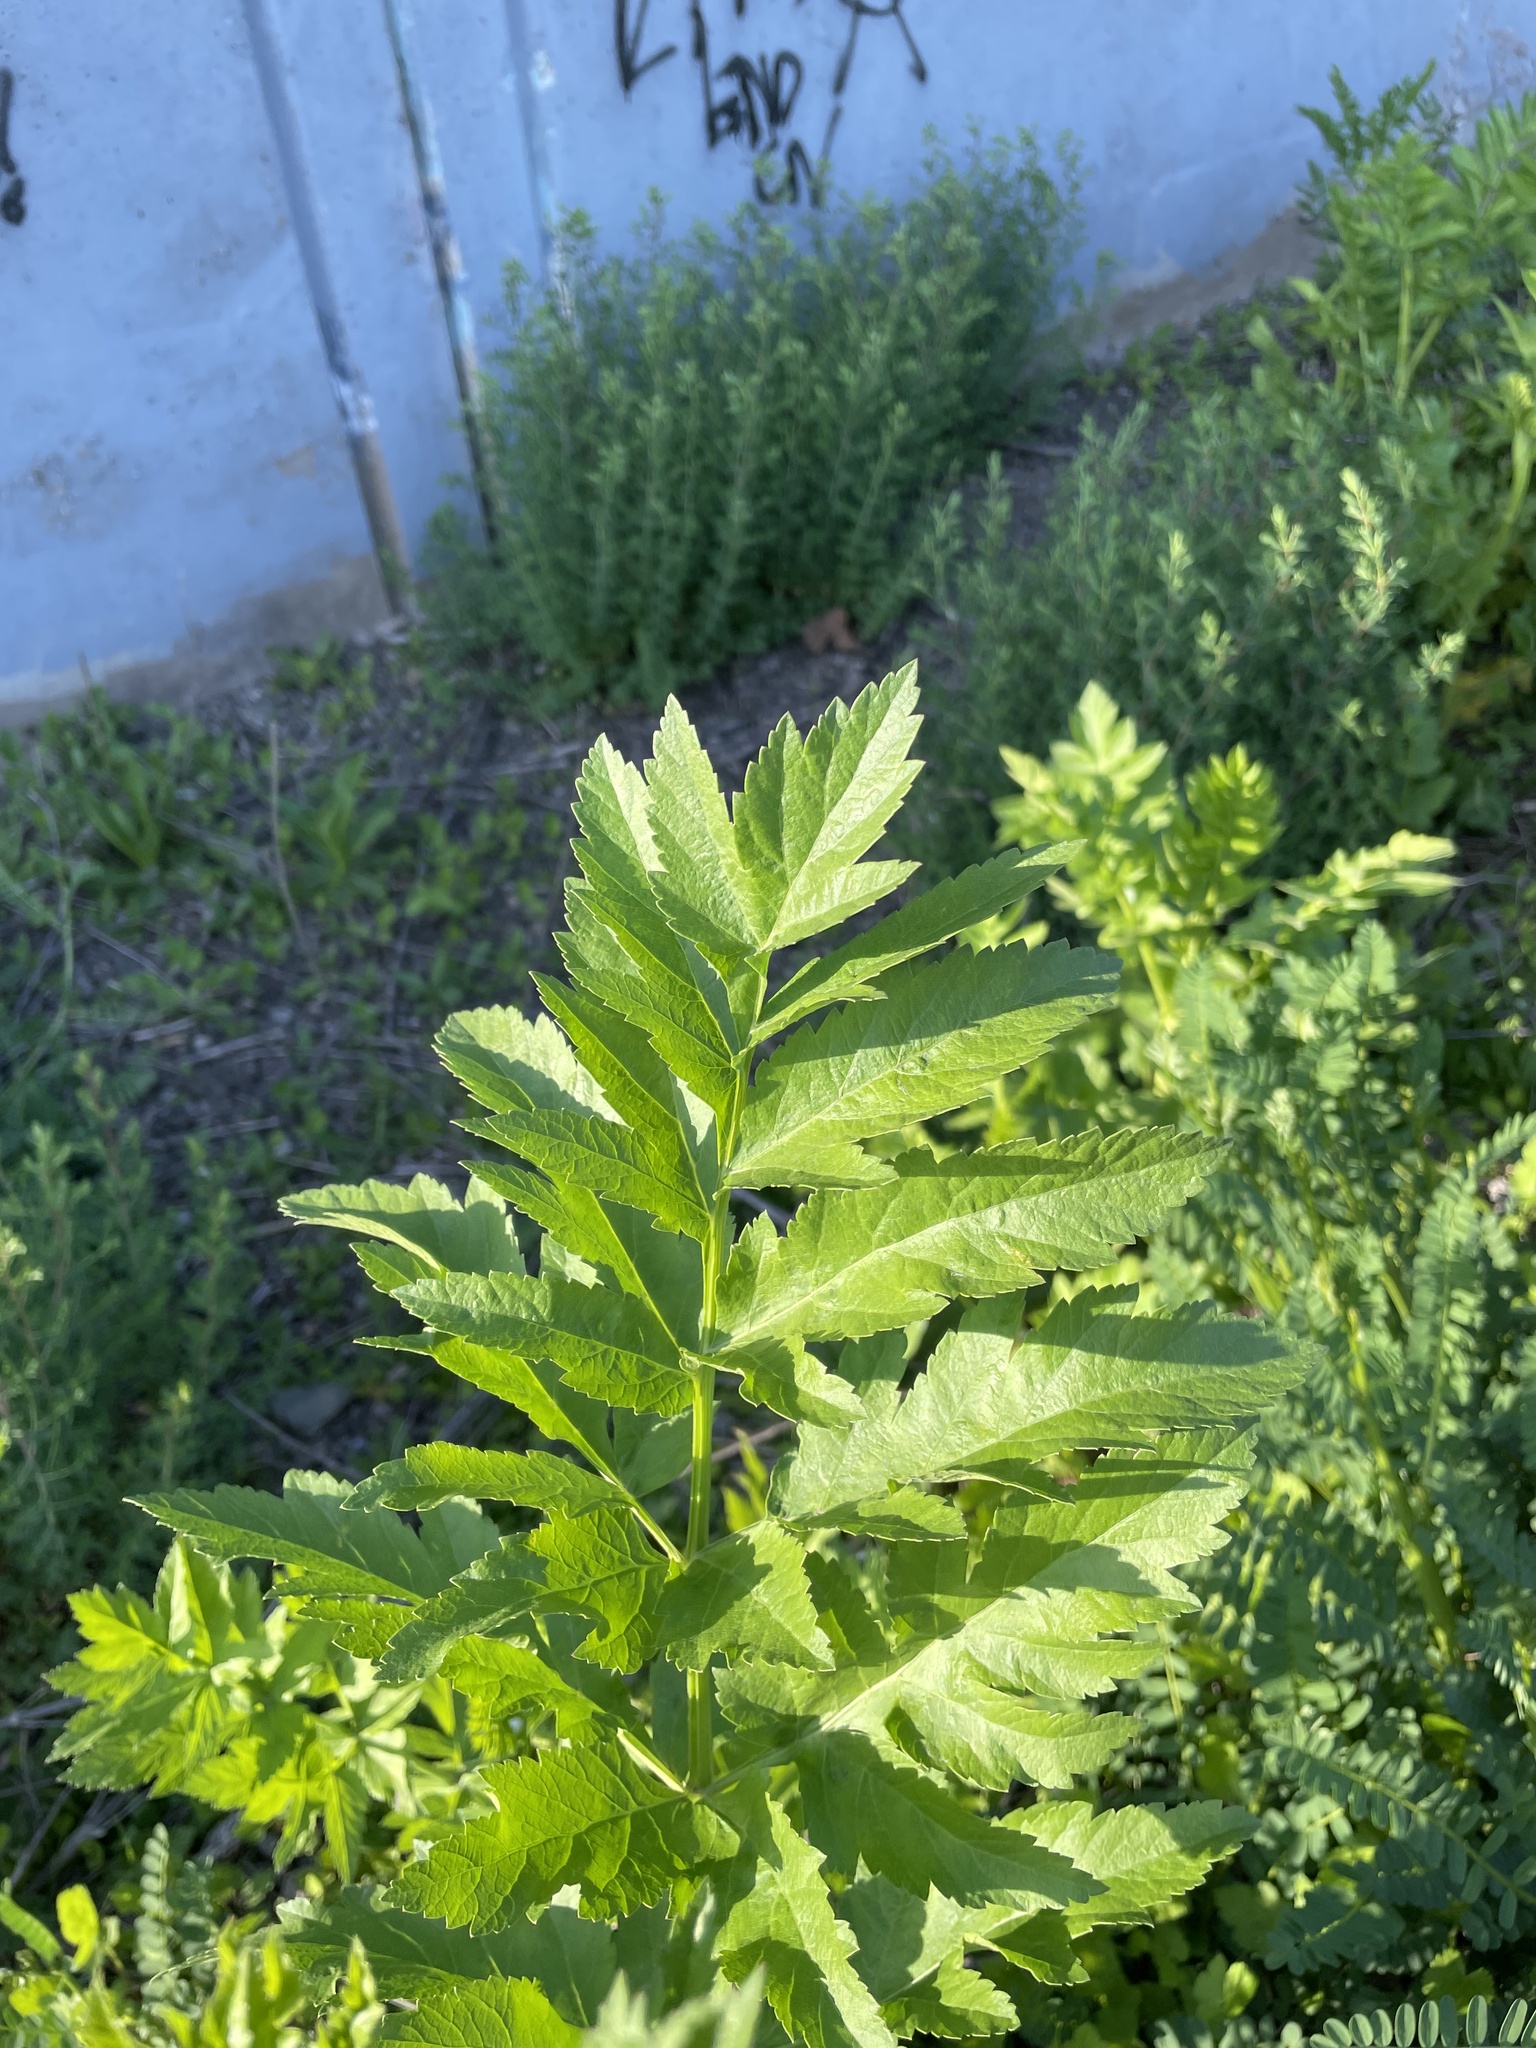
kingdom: Plantae
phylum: Tracheophyta
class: Magnoliopsida
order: Apiales
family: Apiaceae
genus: Pastinaca
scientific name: Pastinaca sativa
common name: Wild parsnip
